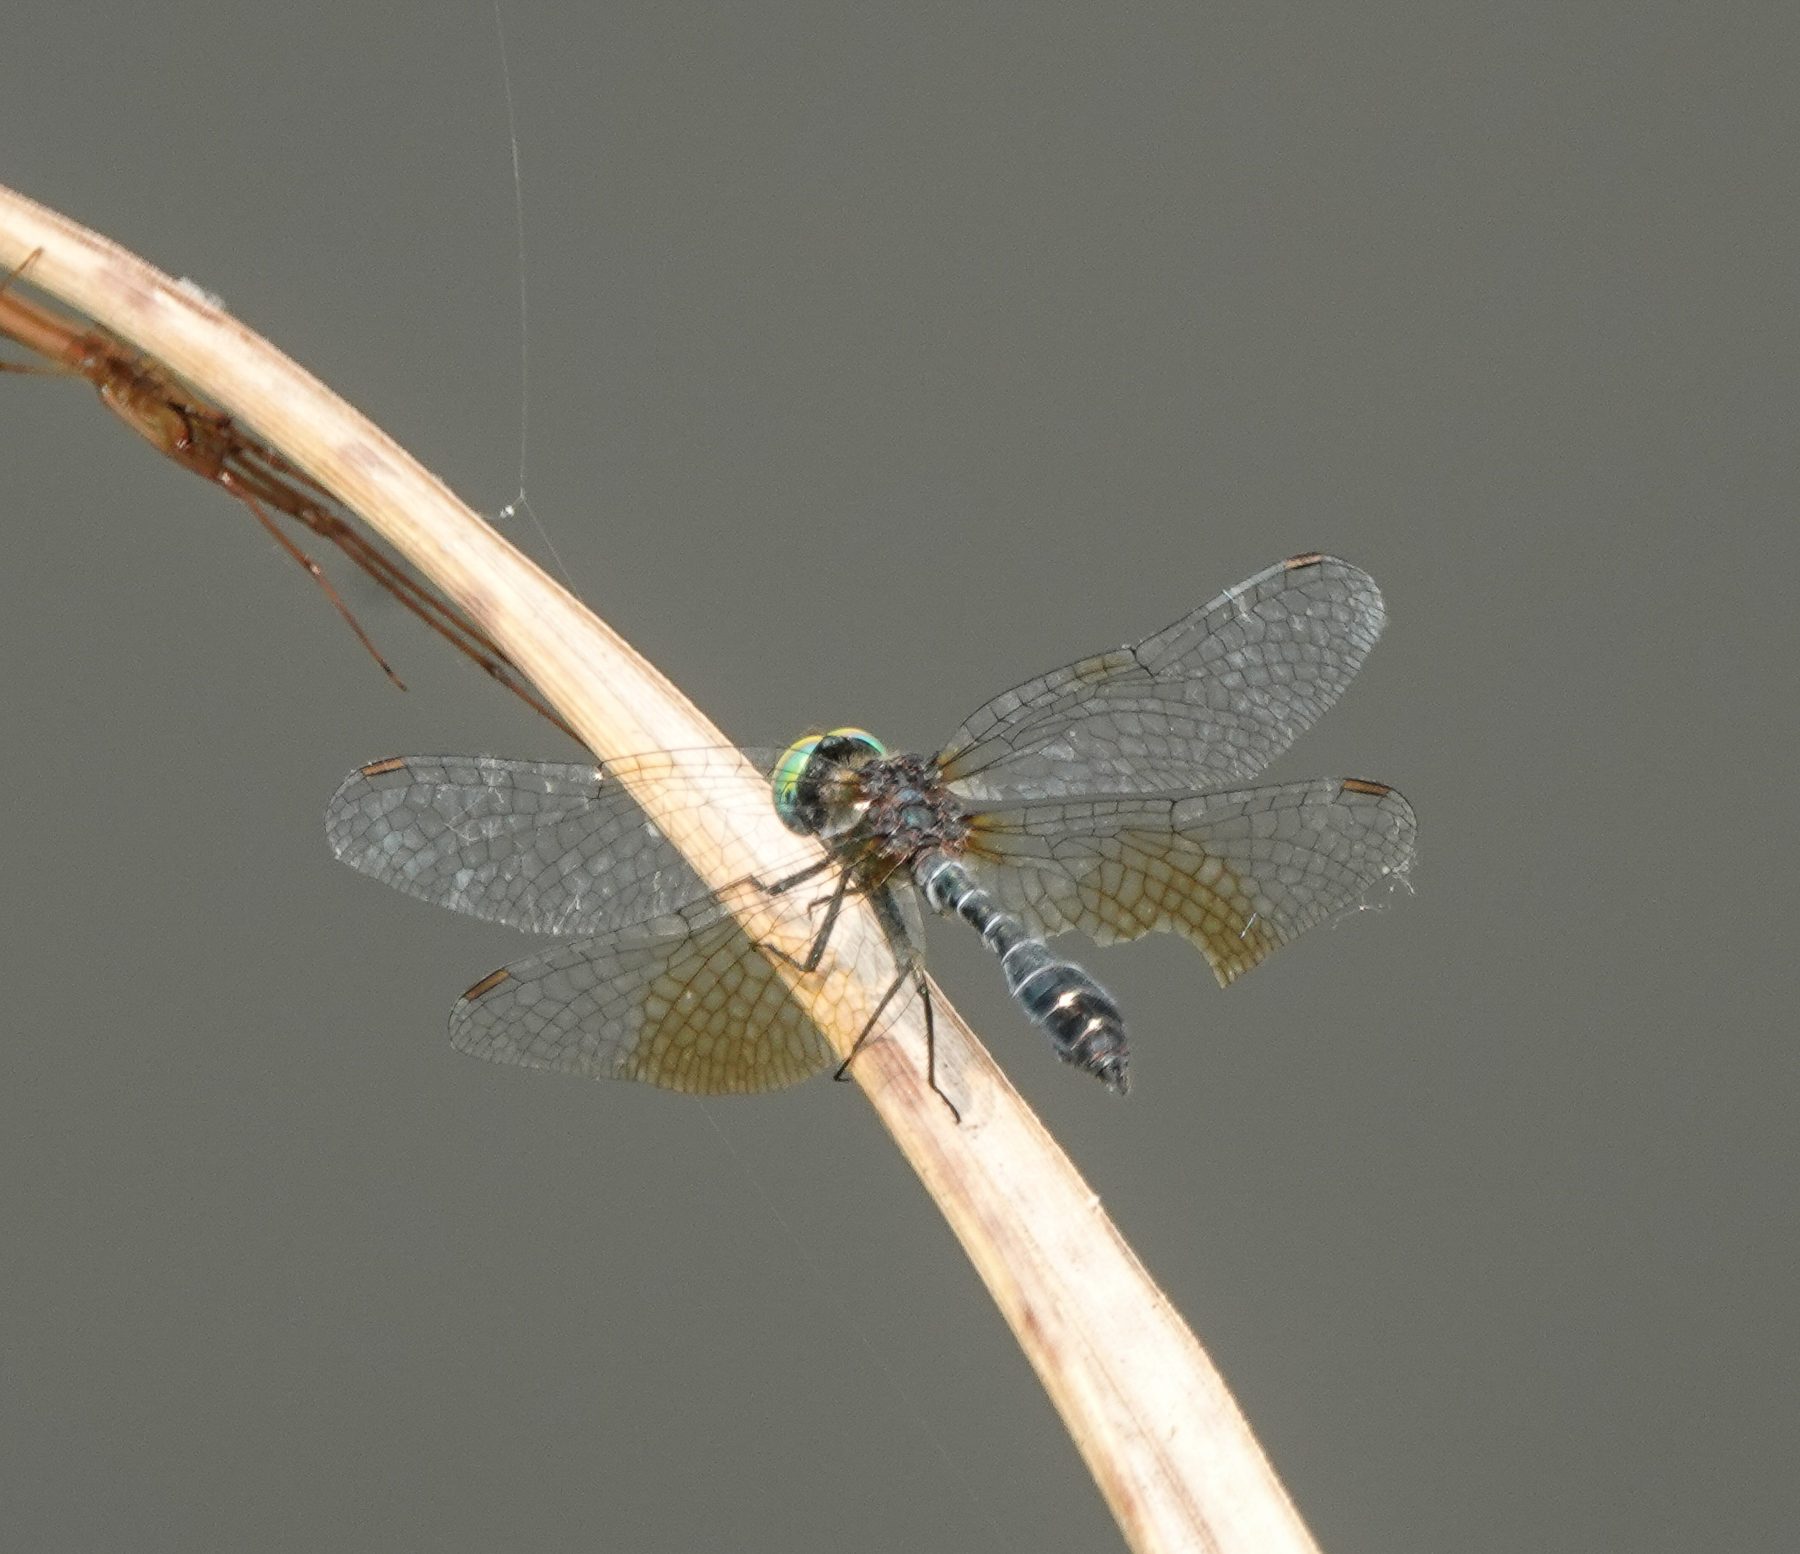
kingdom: Animalia
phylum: Arthropoda
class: Insecta
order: Odonata
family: Libellulidae
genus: Nannophyopsis
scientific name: Nannophyopsis clara
